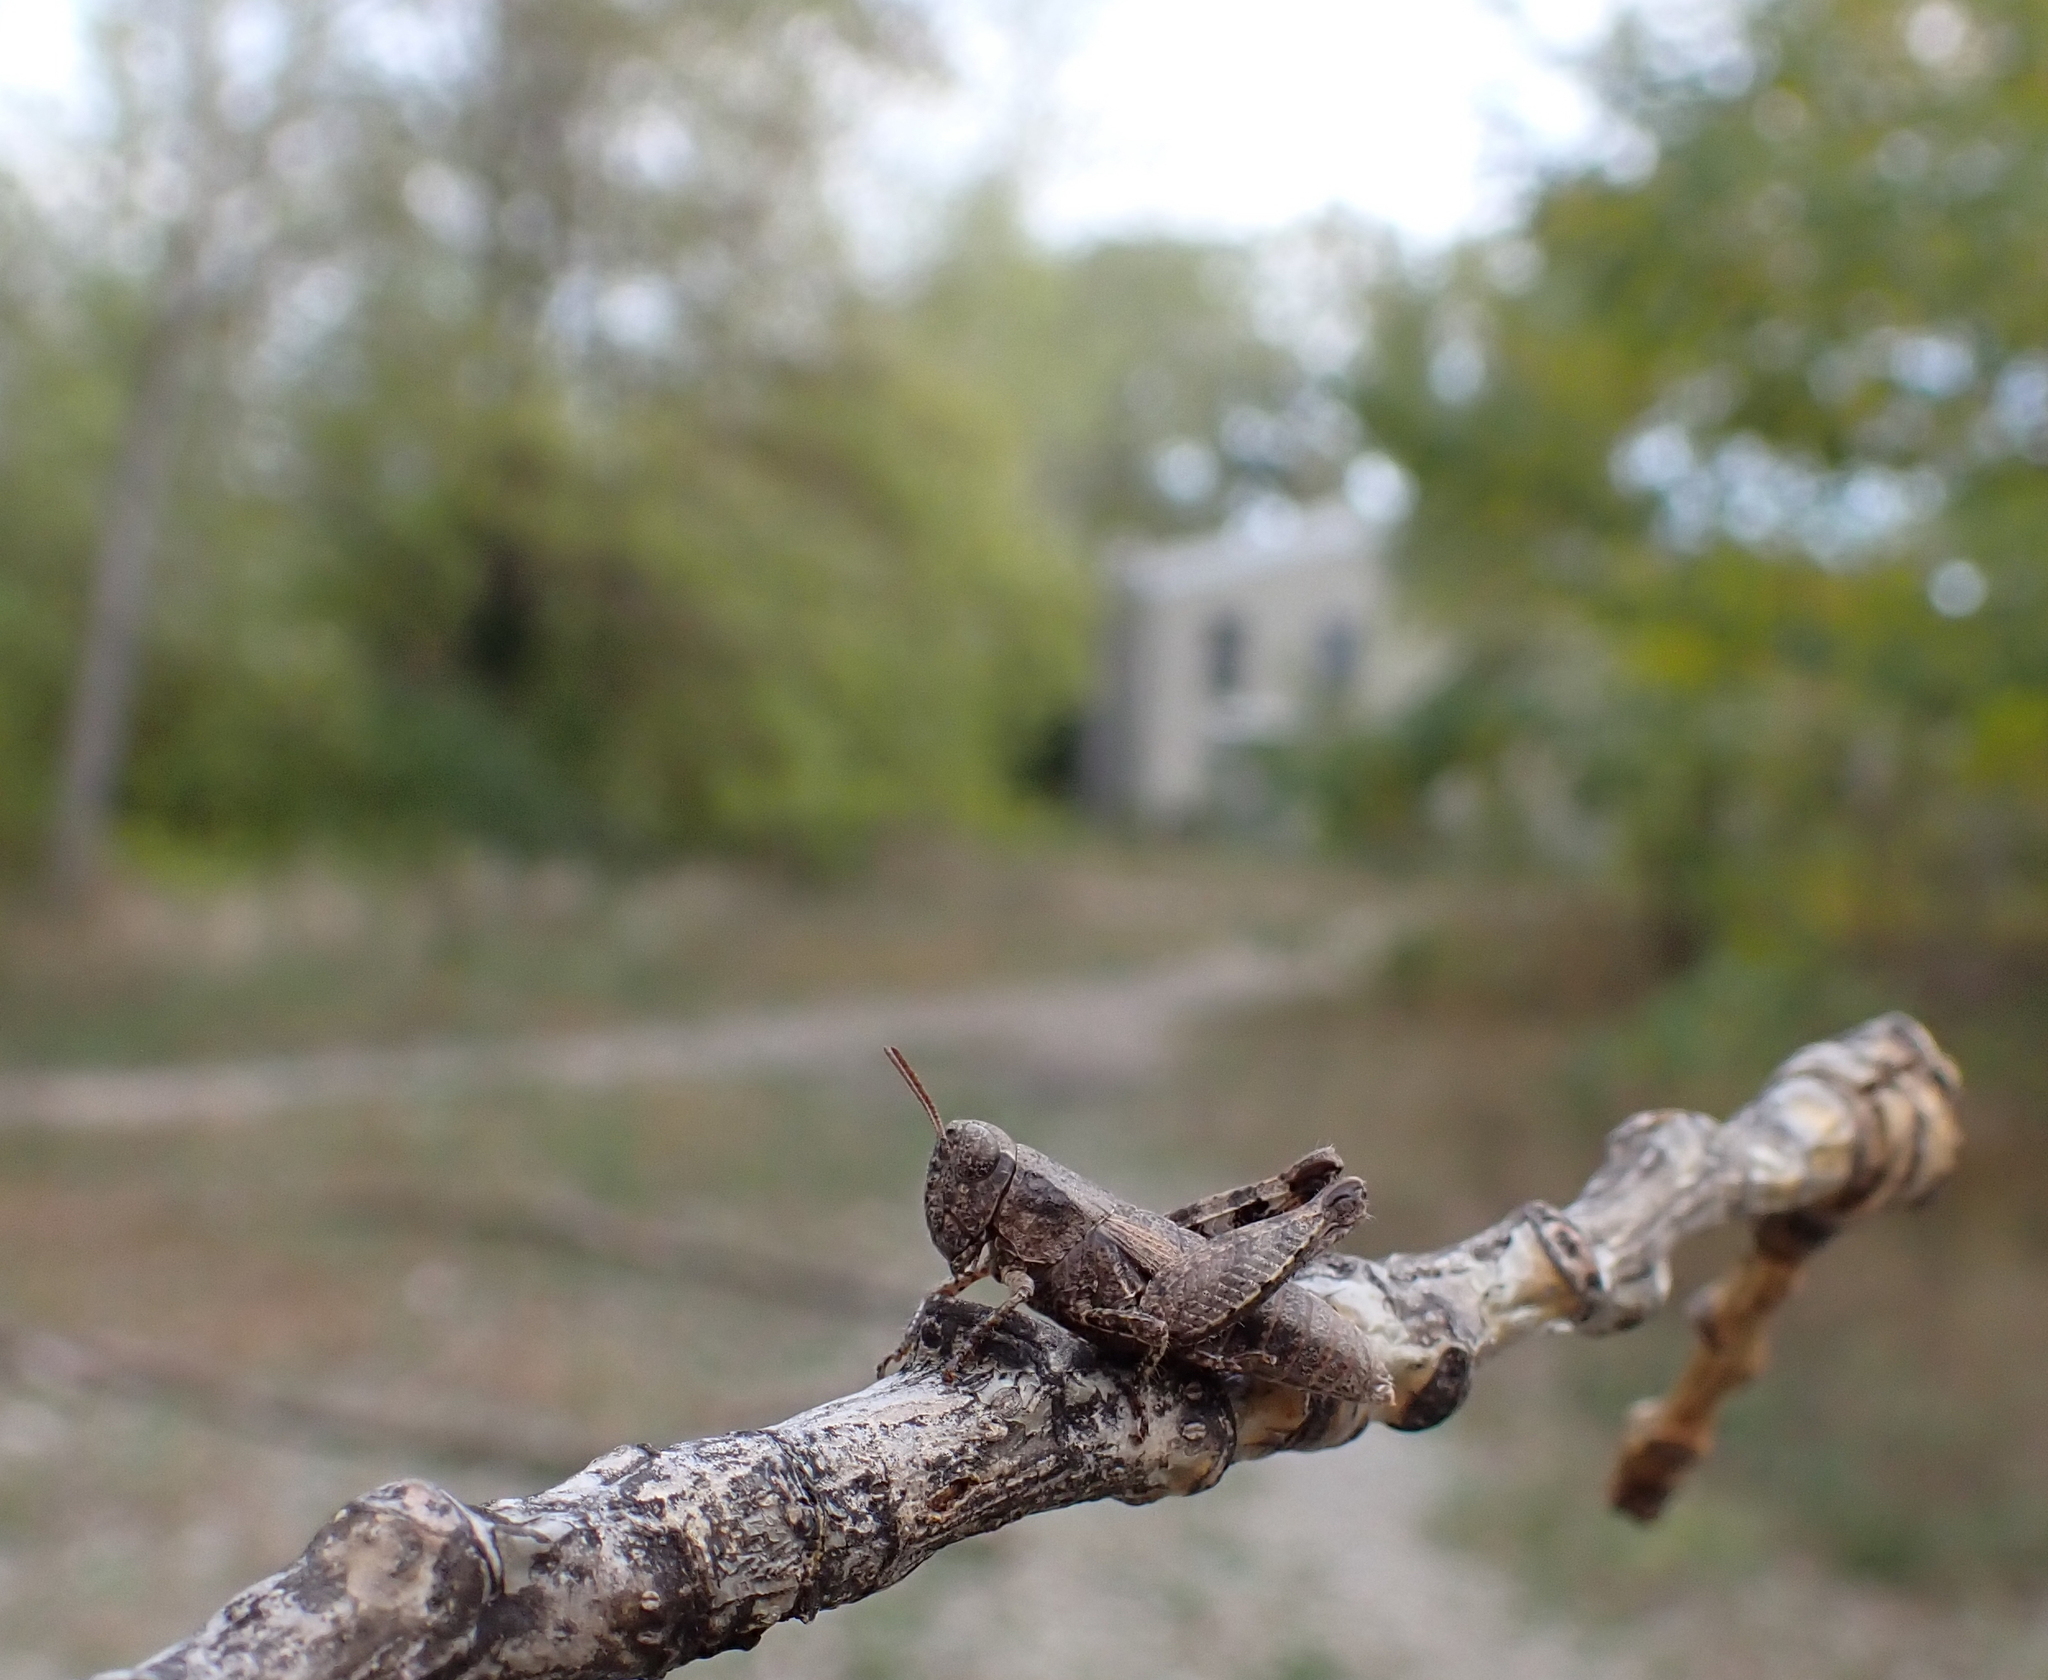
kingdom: Animalia
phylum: Arthropoda
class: Insecta
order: Orthoptera
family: Acrididae
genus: Pezotettix
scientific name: Pezotettix giornae
